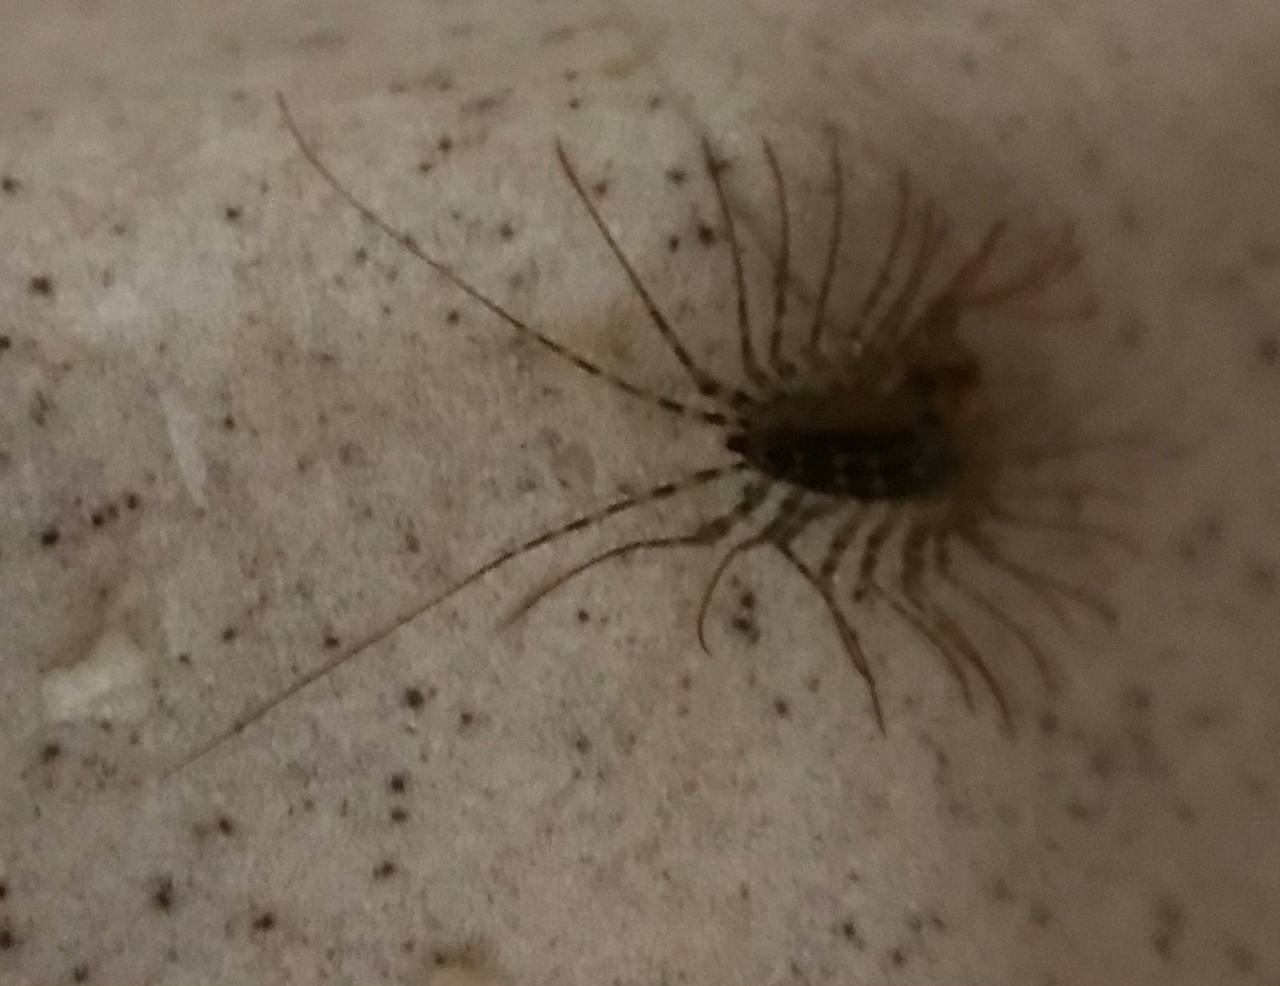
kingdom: Animalia
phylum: Arthropoda
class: Chilopoda
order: Scutigeromorpha
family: Scutigeridae
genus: Scutigera
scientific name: Scutigera coleoptrata
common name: House centipede
